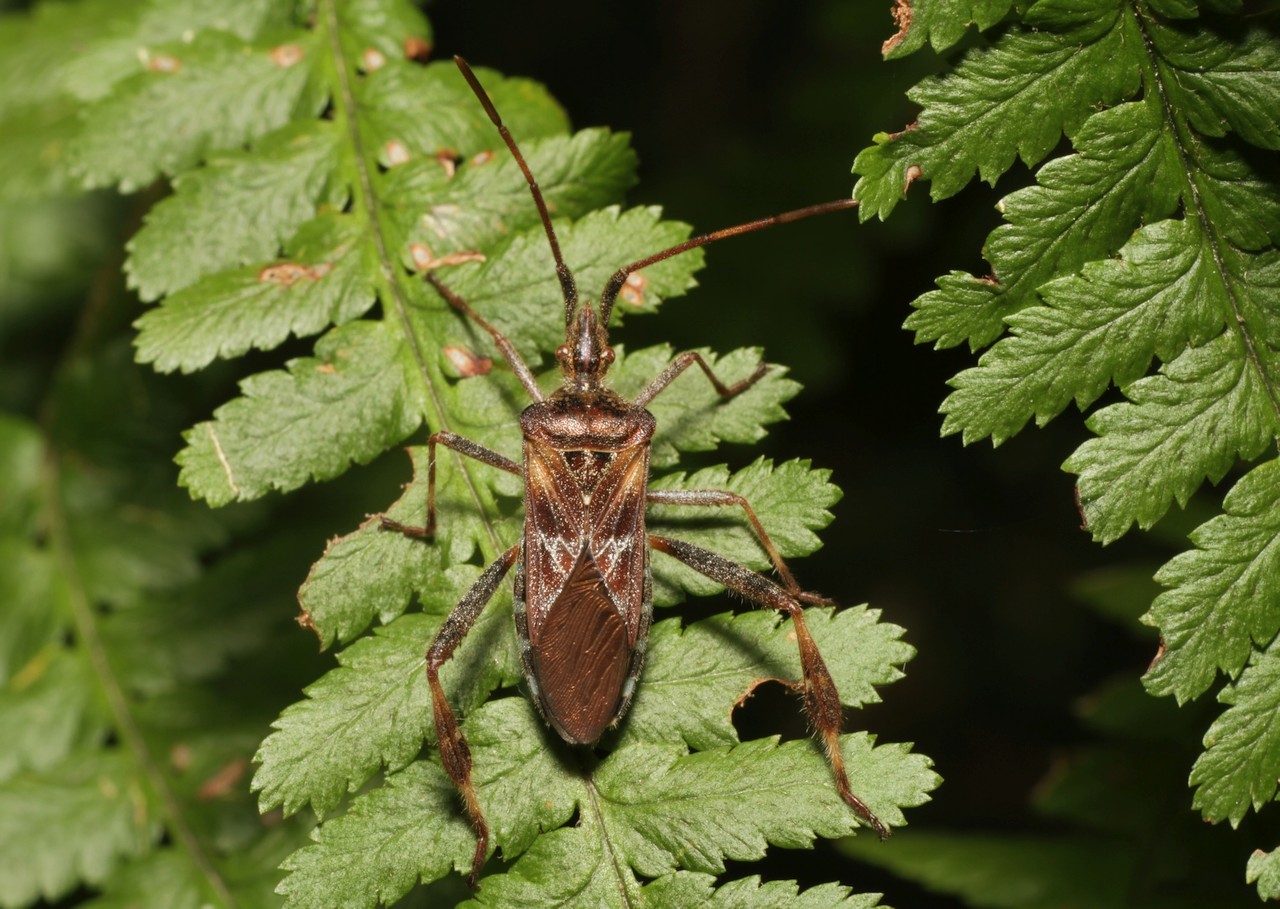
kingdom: Animalia
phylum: Arthropoda
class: Insecta
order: Hemiptera
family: Coreidae
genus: Leptoglossus
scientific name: Leptoglossus occidentalis
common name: Western conifer-seed bug
